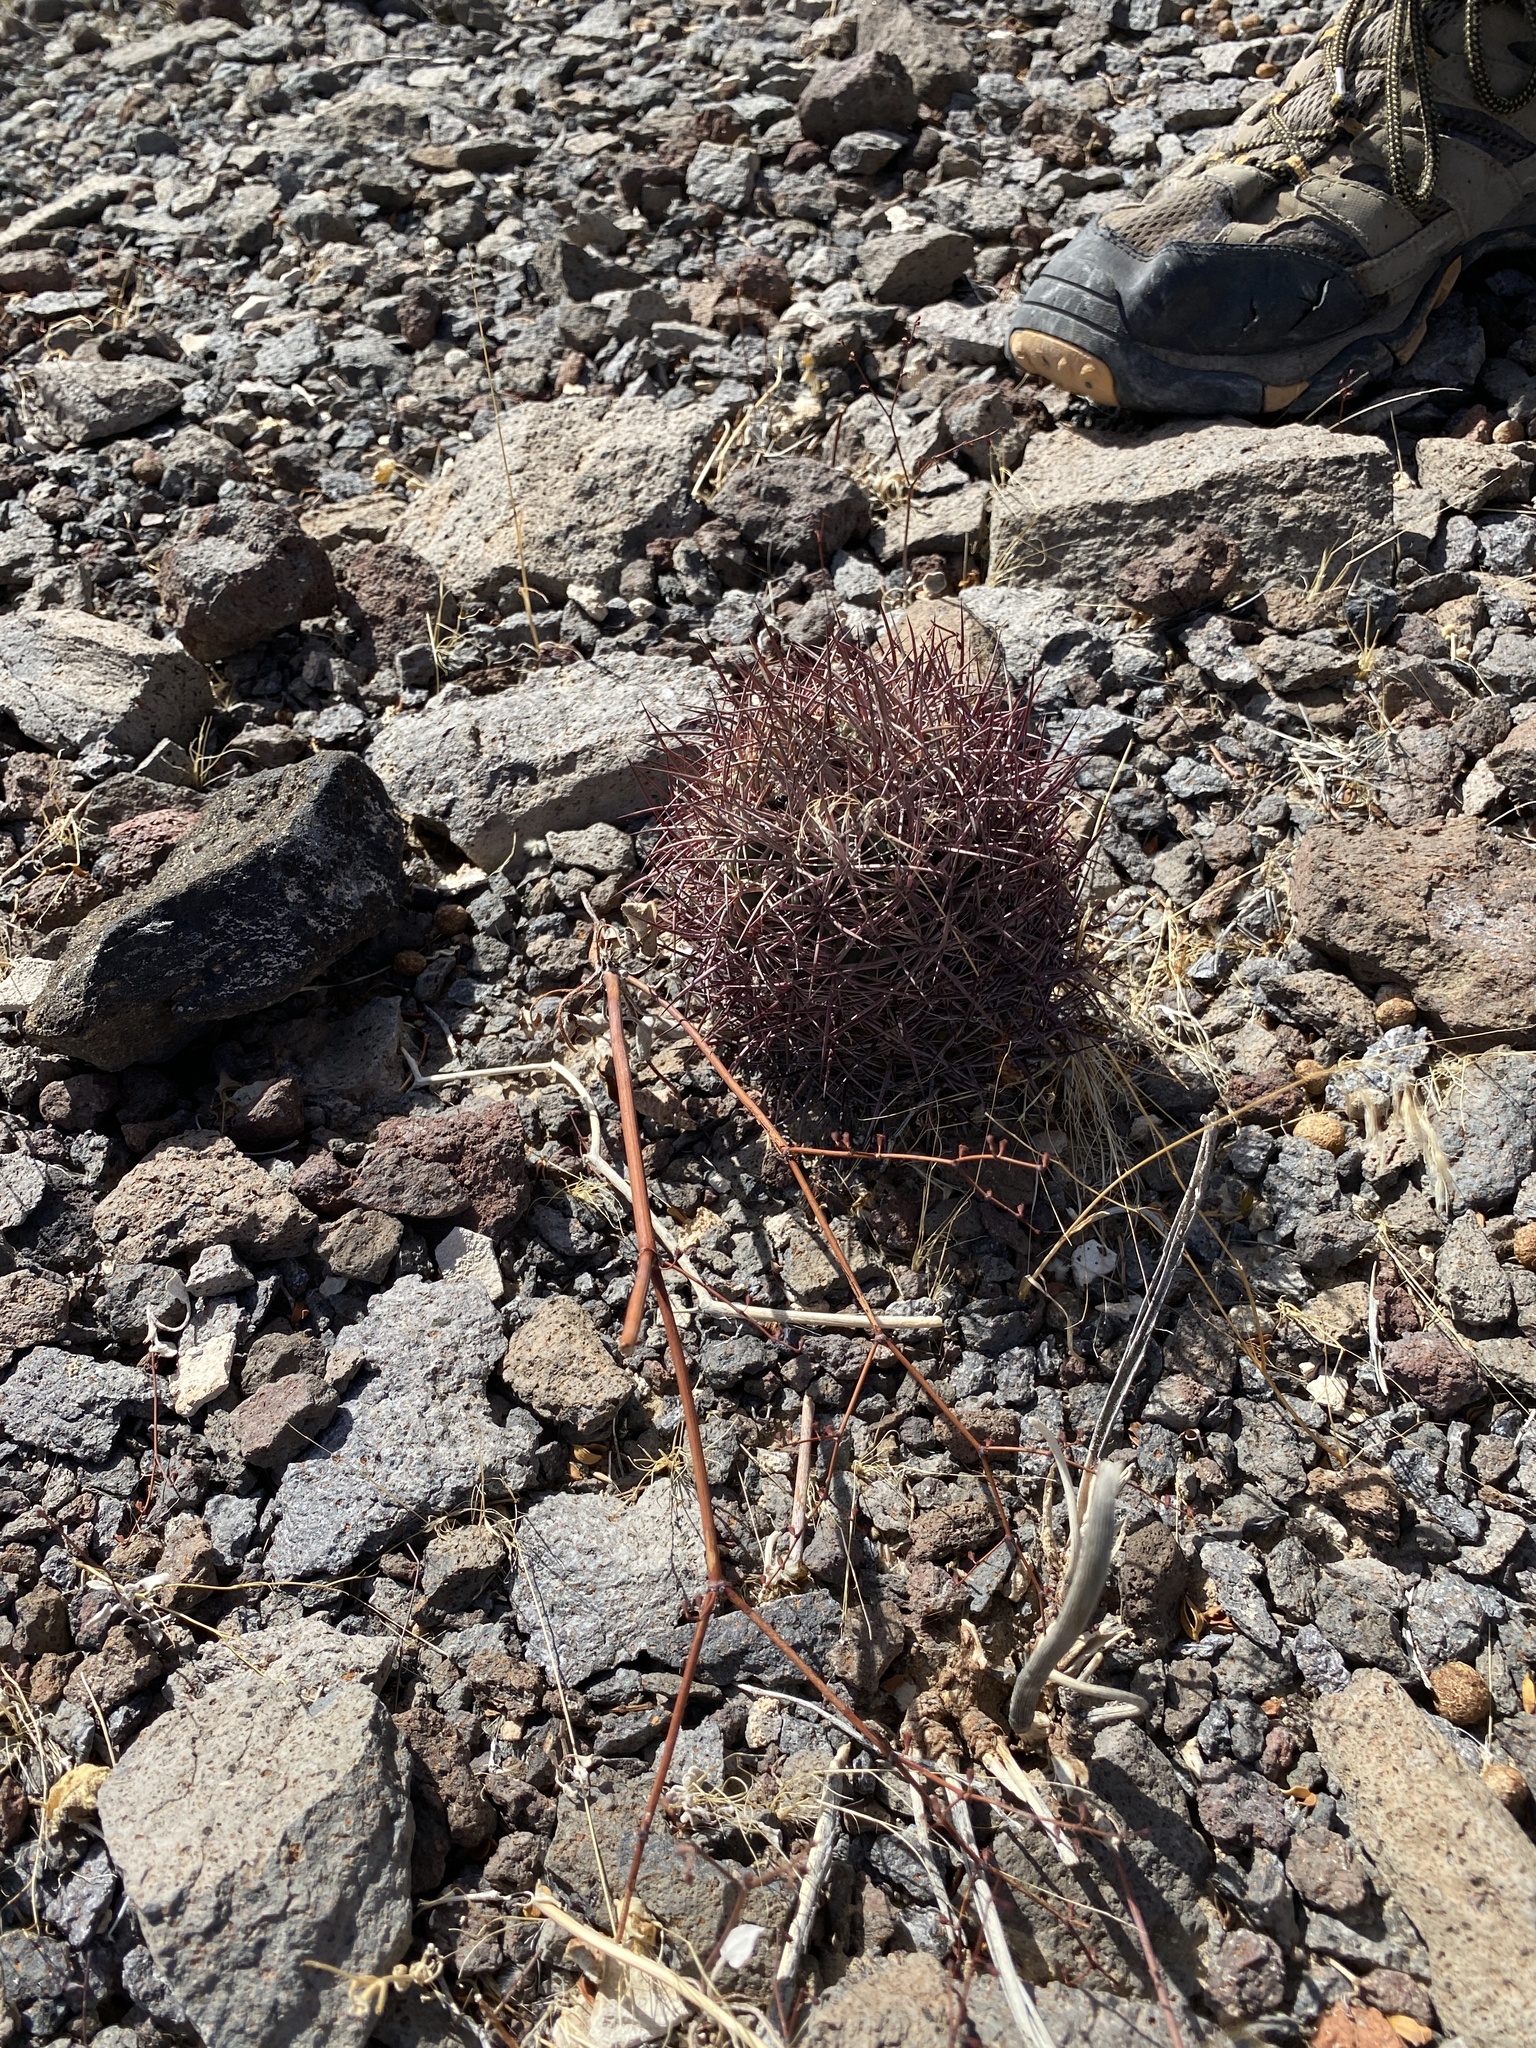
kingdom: Plantae
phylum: Tracheophyta
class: Magnoliopsida
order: Caryophyllales
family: Cactaceae
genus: Sclerocactus
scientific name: Sclerocactus johnsonii
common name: Eight-spine fishhook cactus
